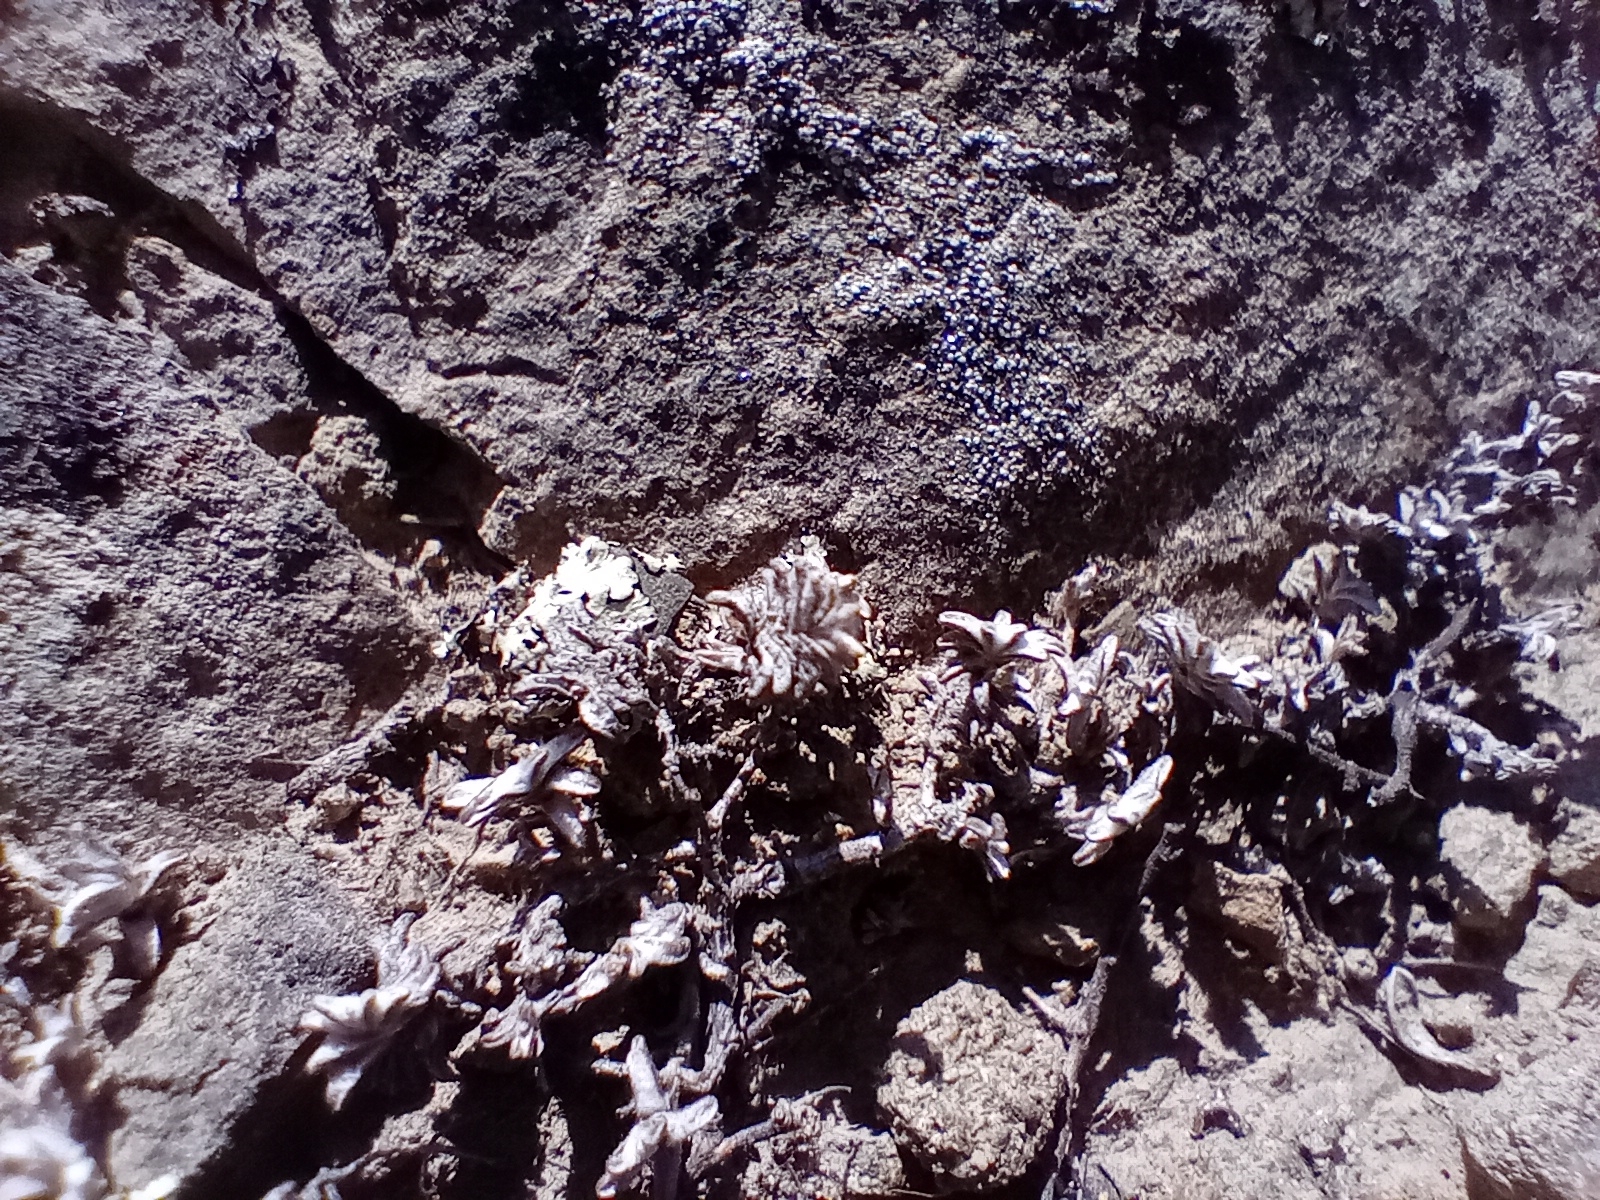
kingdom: Plantae
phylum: Tracheophyta
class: Magnoliopsida
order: Asterales
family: Asteraceae
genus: Raoulia
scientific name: Raoulia monroi
